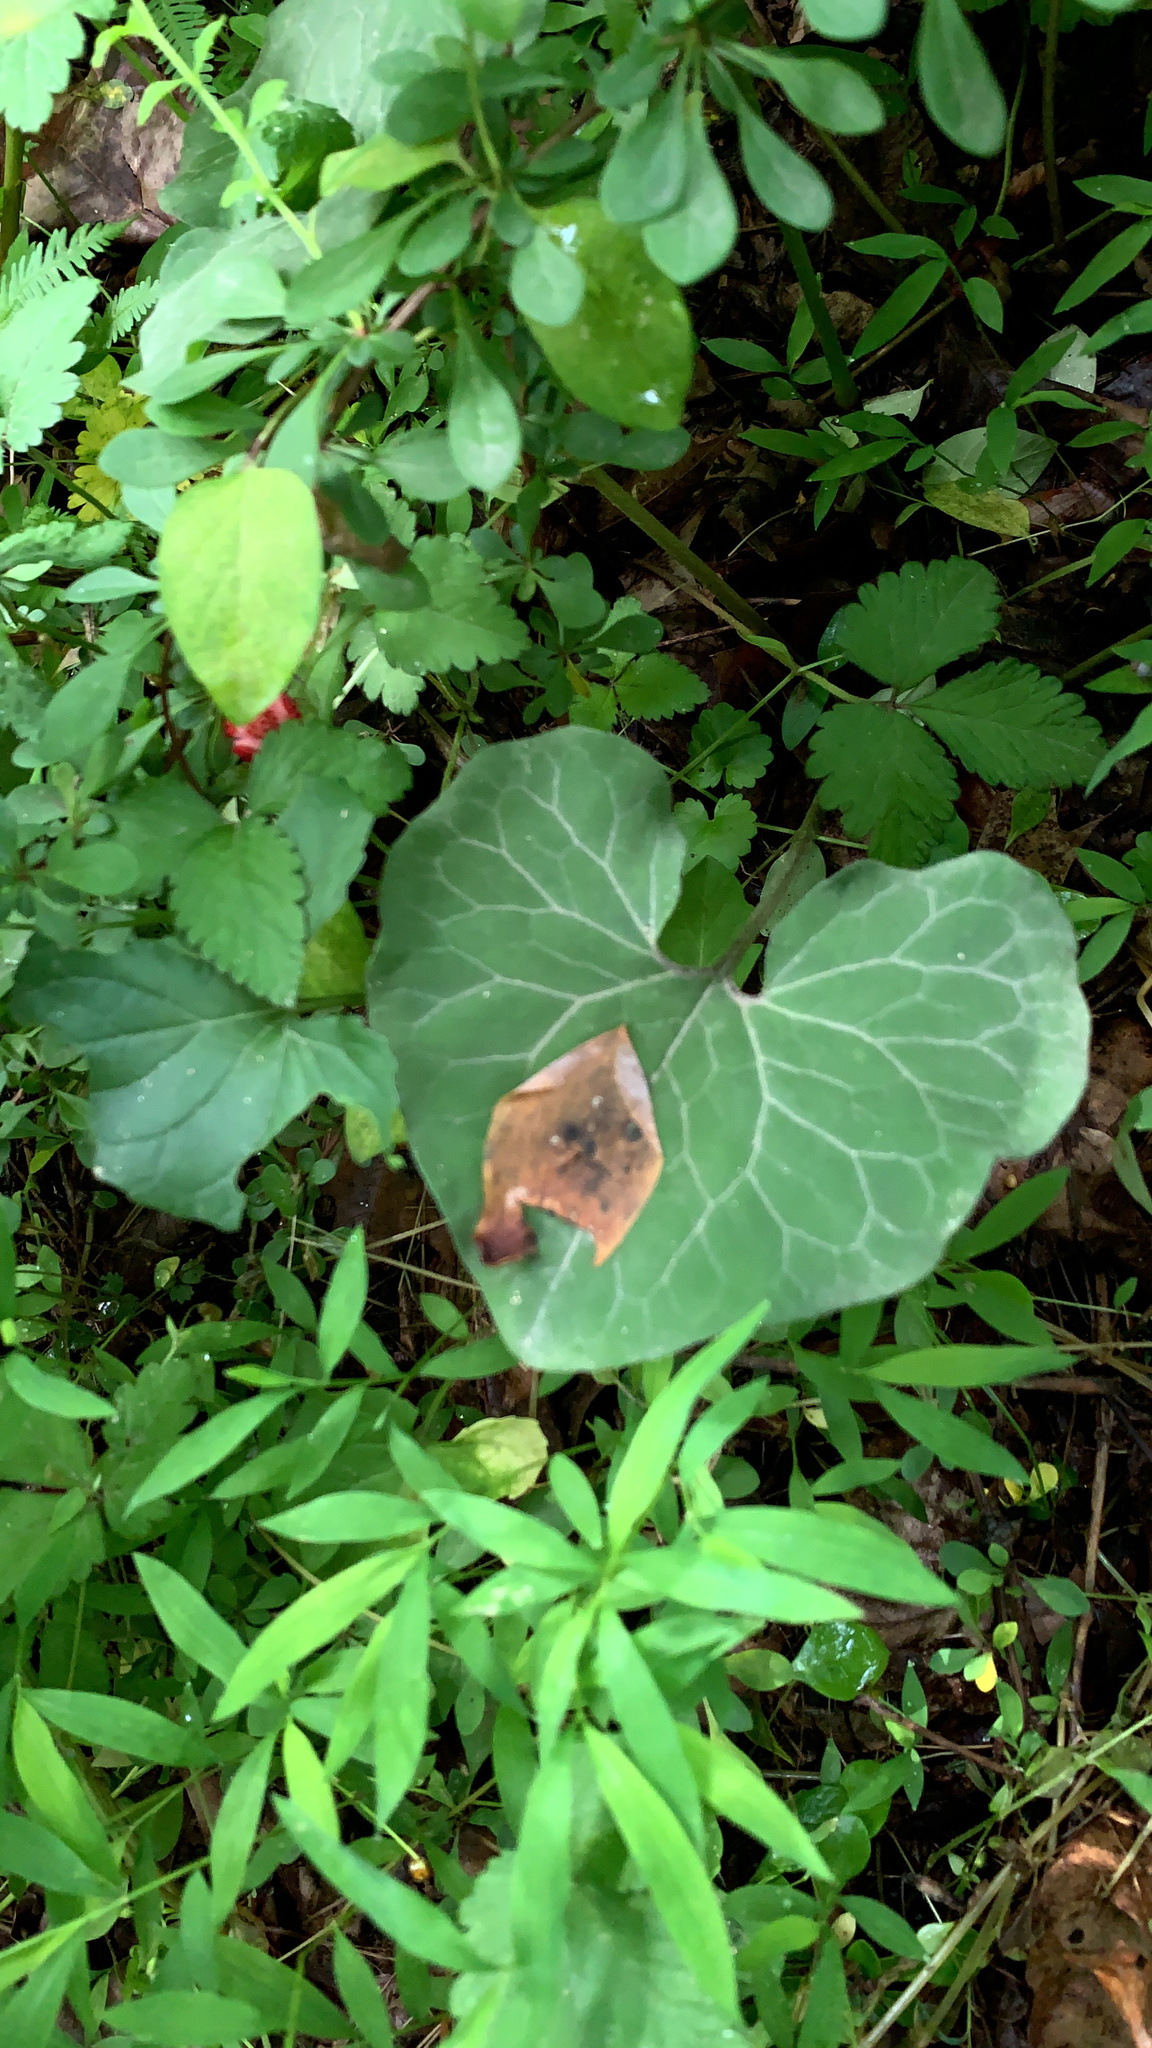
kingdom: Plantae
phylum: Tracheophyta
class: Magnoliopsida
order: Piperales
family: Aristolochiaceae
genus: Asarum
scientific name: Asarum canadense
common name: Wild ginger
